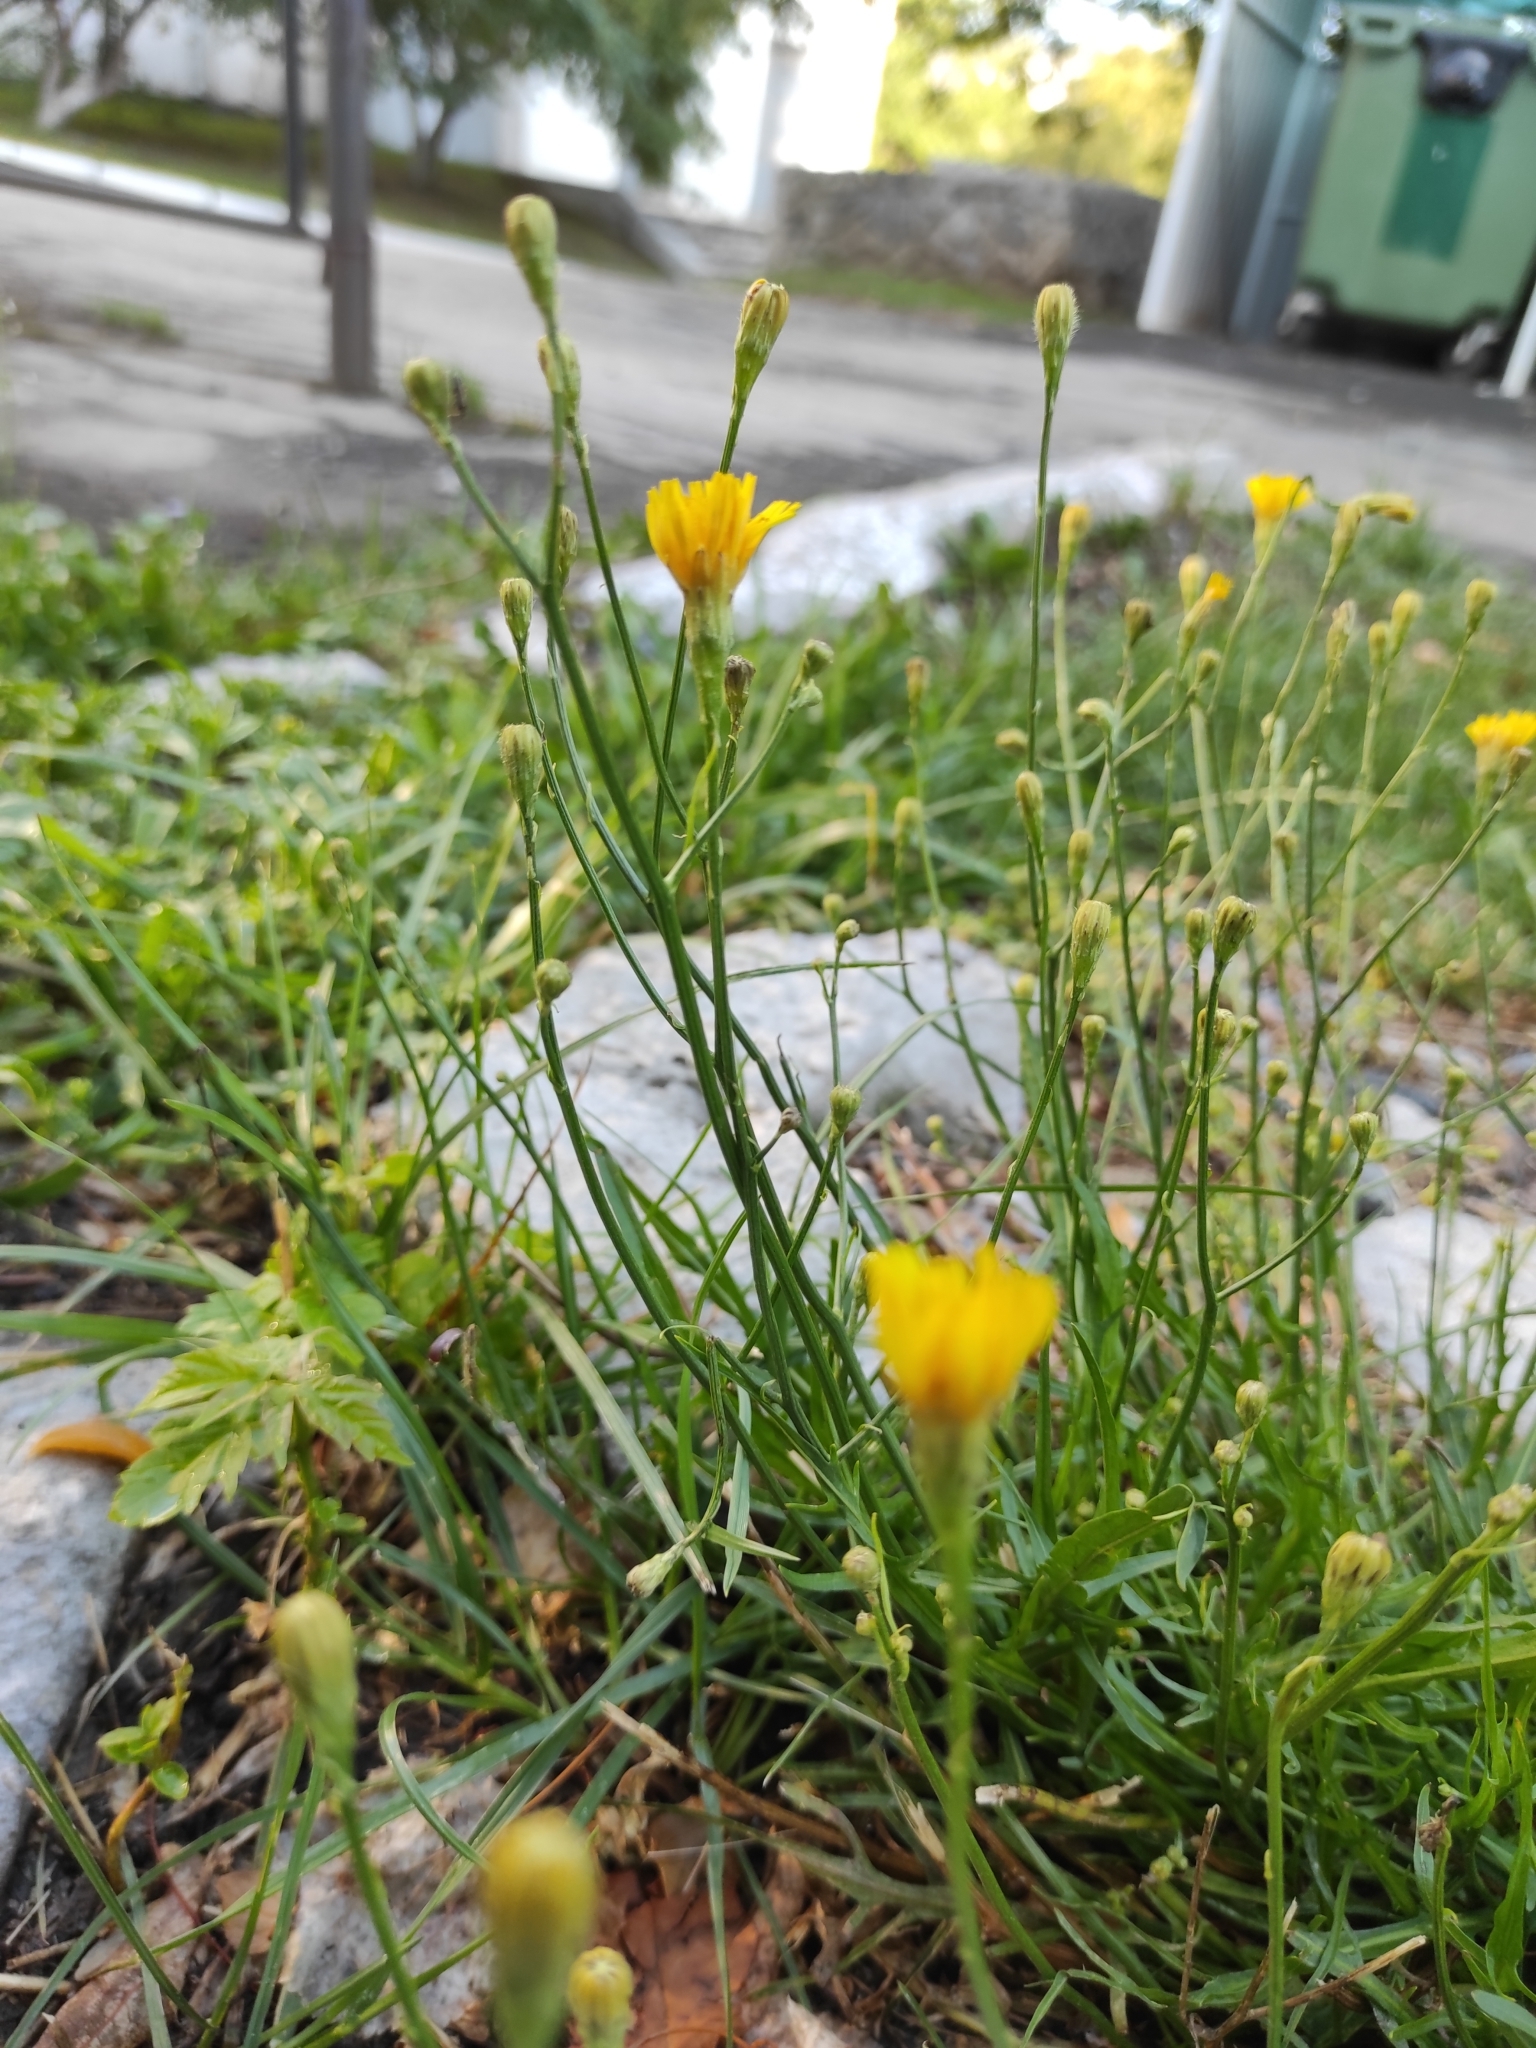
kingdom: Plantae
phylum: Tracheophyta
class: Magnoliopsida
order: Asterales
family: Asteraceae
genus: Scorzoneroides
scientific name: Scorzoneroides autumnalis
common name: Autumn hawkbit
